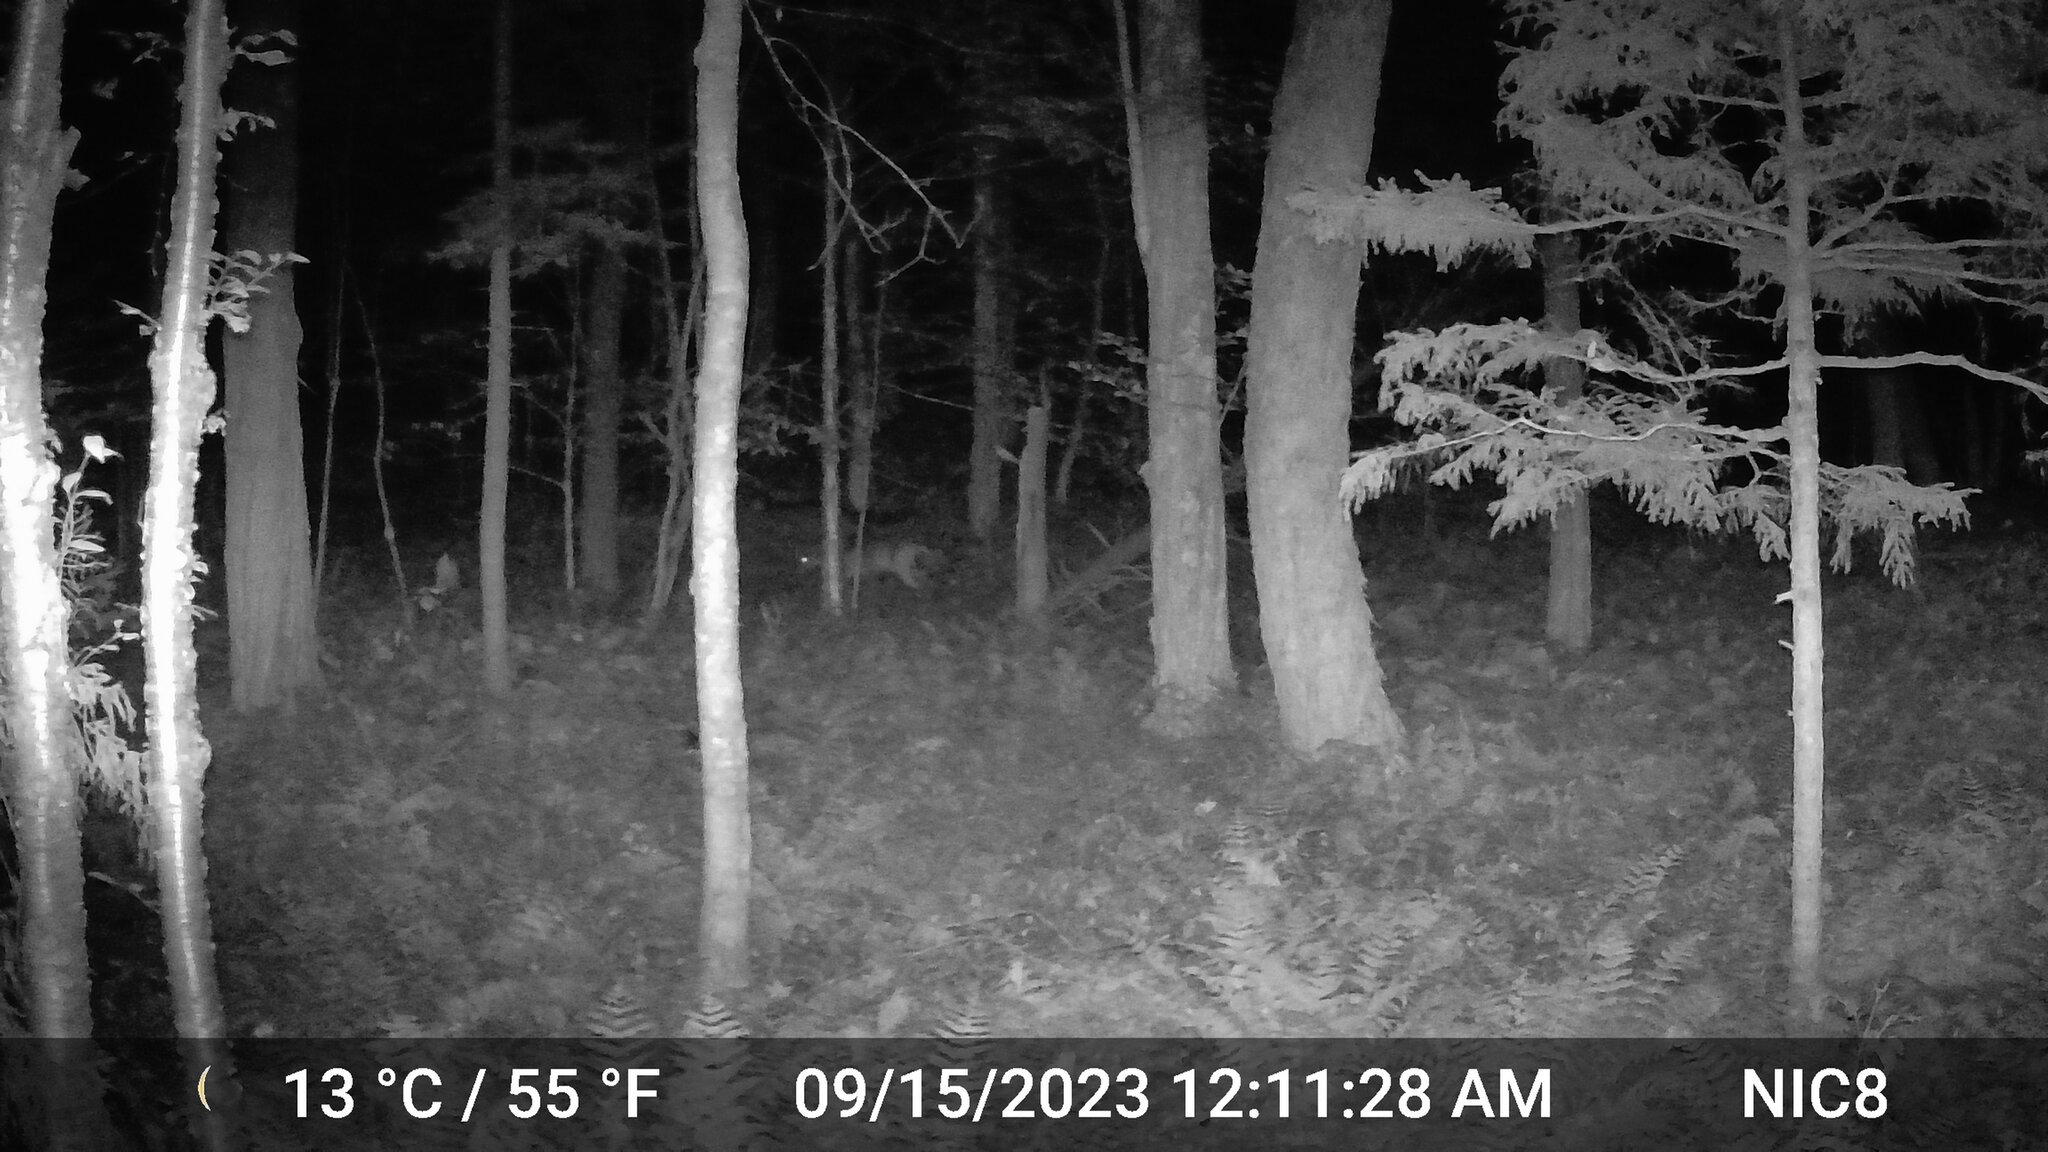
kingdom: Animalia
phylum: Chordata
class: Mammalia
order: Artiodactyla
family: Cervidae
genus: Odocoileus
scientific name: Odocoileus virginianus
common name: White-tailed deer
